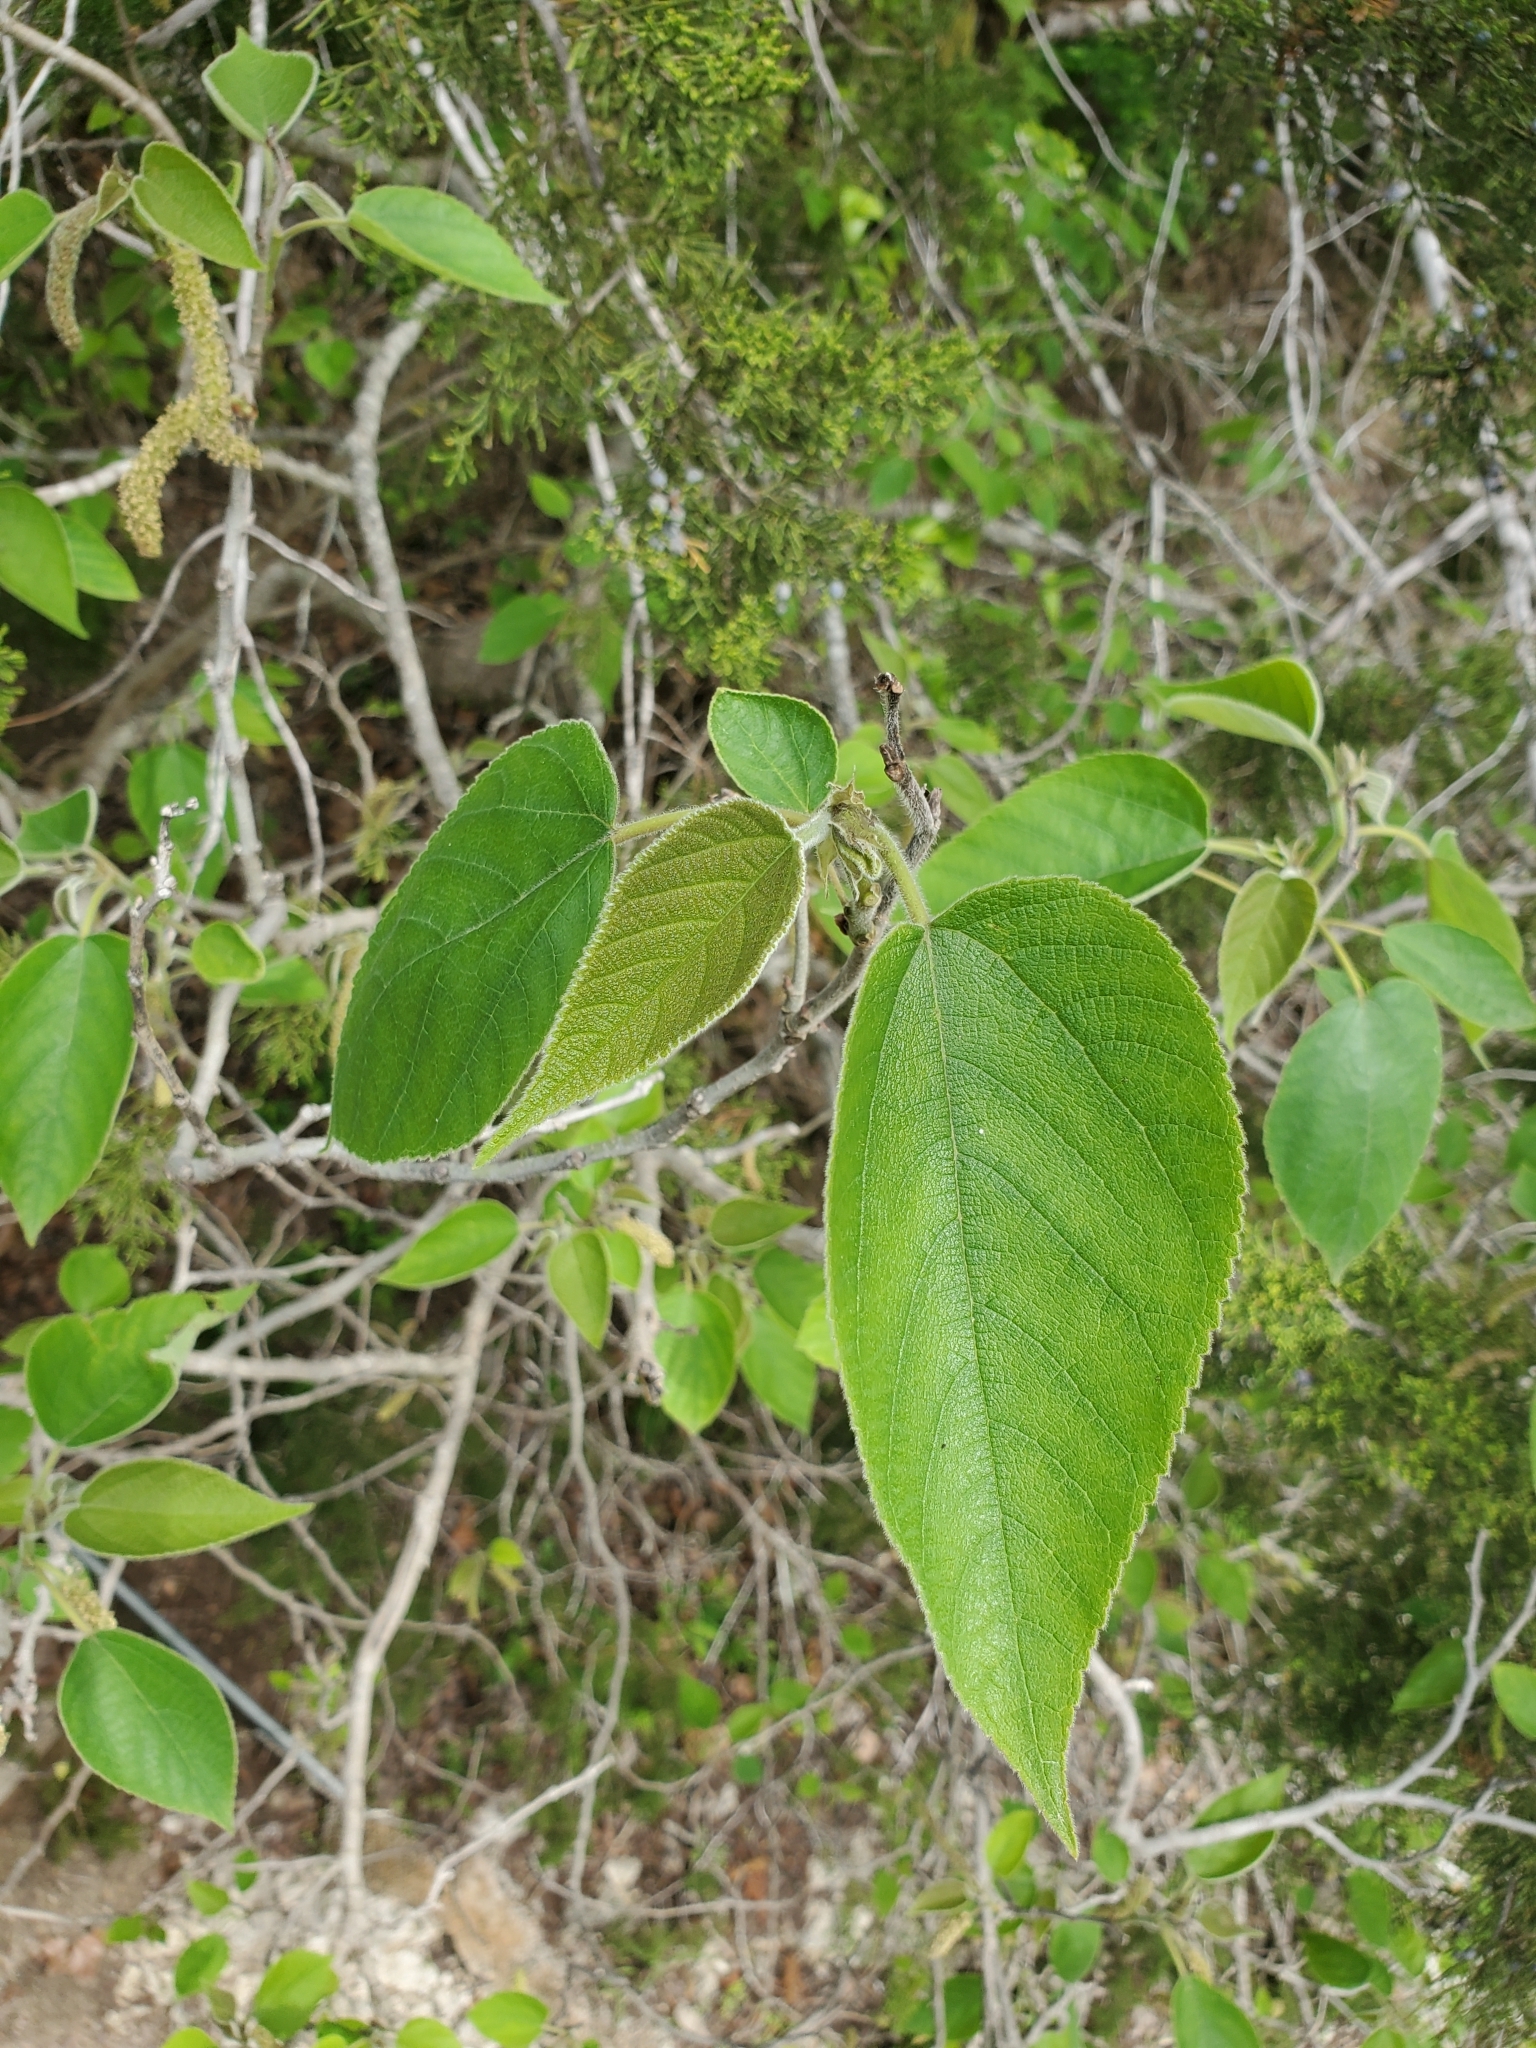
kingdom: Plantae
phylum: Tracheophyta
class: Magnoliopsida
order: Rosales
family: Moraceae
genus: Broussonetia
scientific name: Broussonetia papyrifera
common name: Paper mulberry
